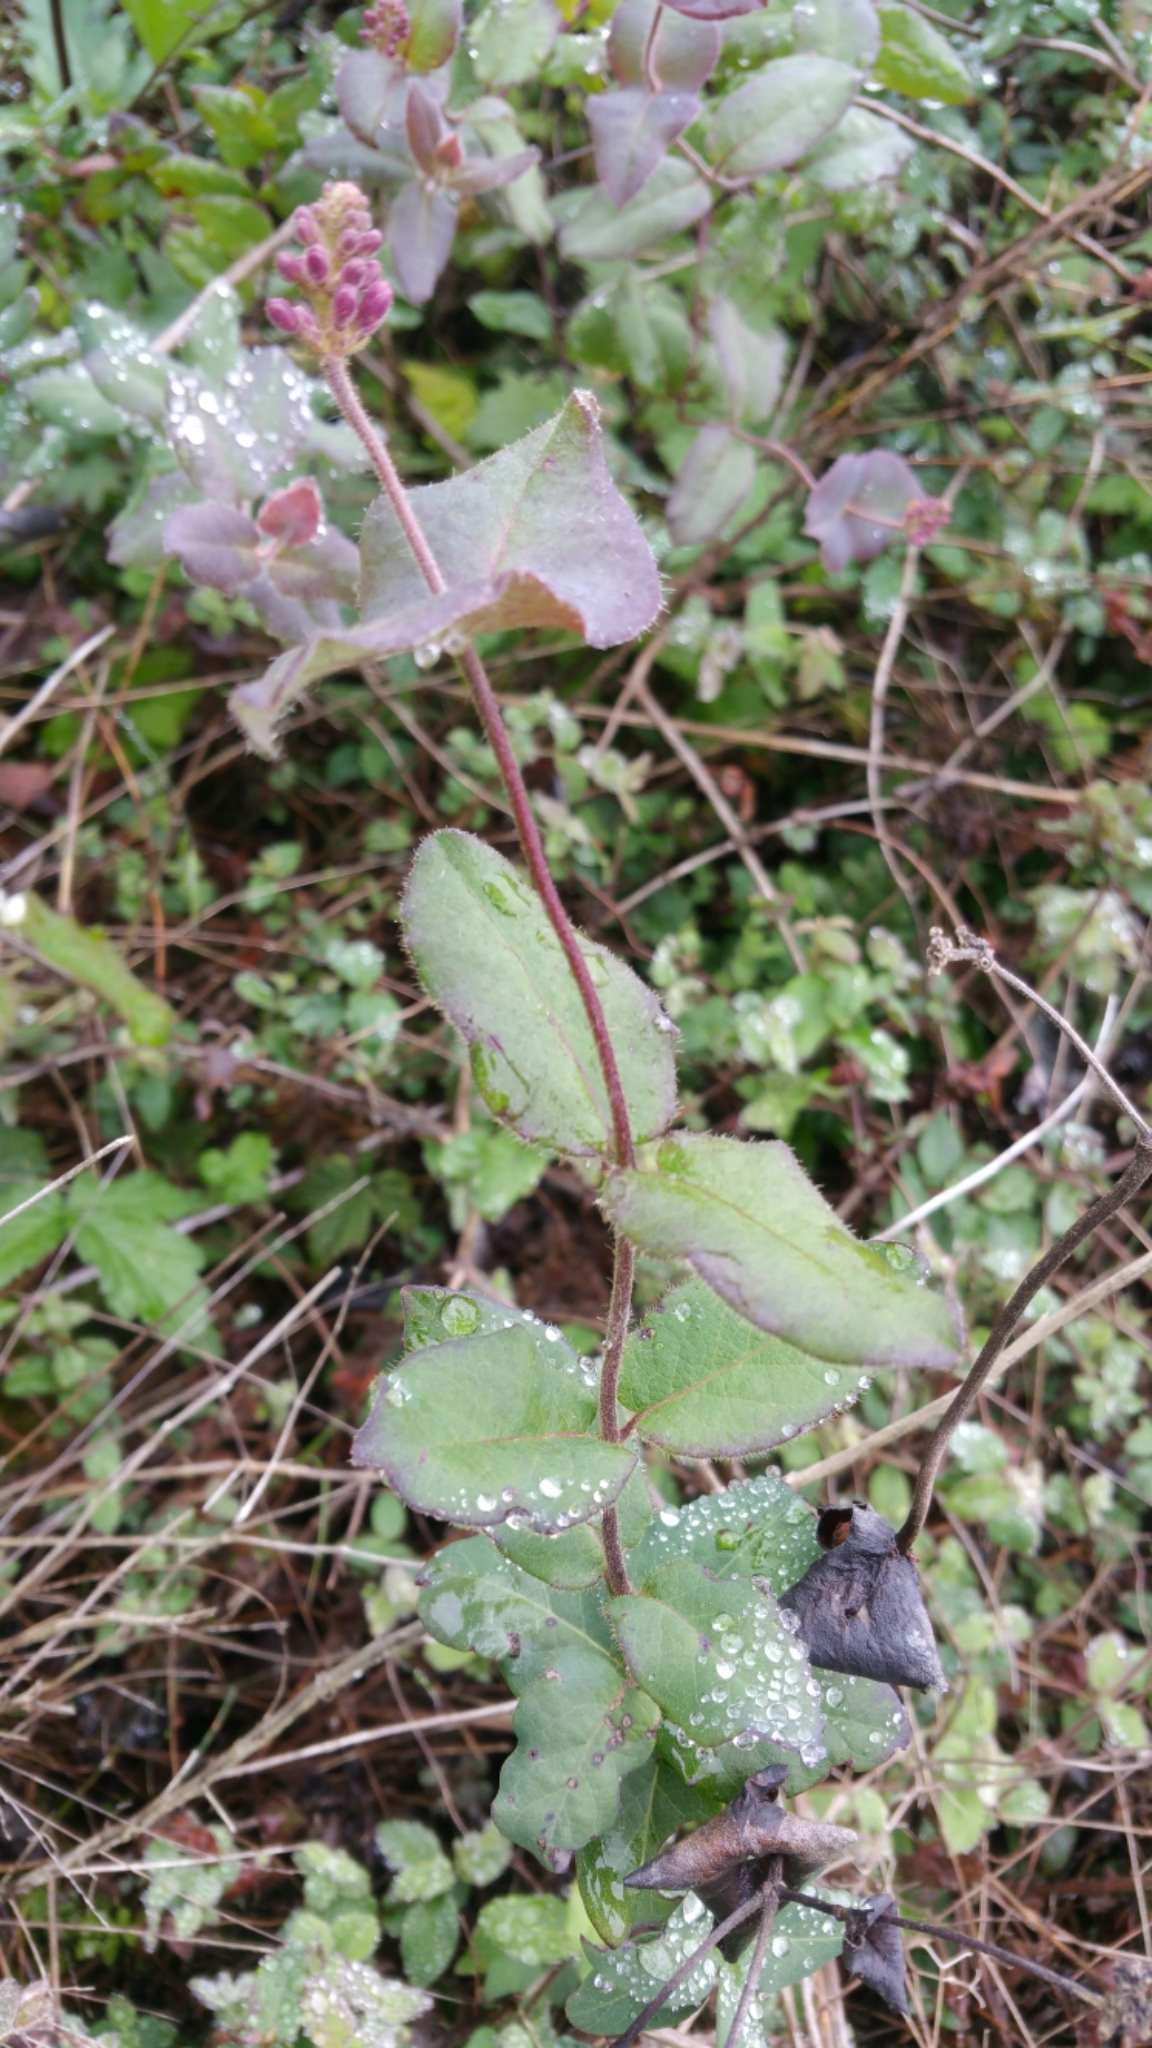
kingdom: Plantae
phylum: Tracheophyta
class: Magnoliopsida
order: Dipsacales
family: Caprifoliaceae
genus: Lonicera
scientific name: Lonicera hispidula
